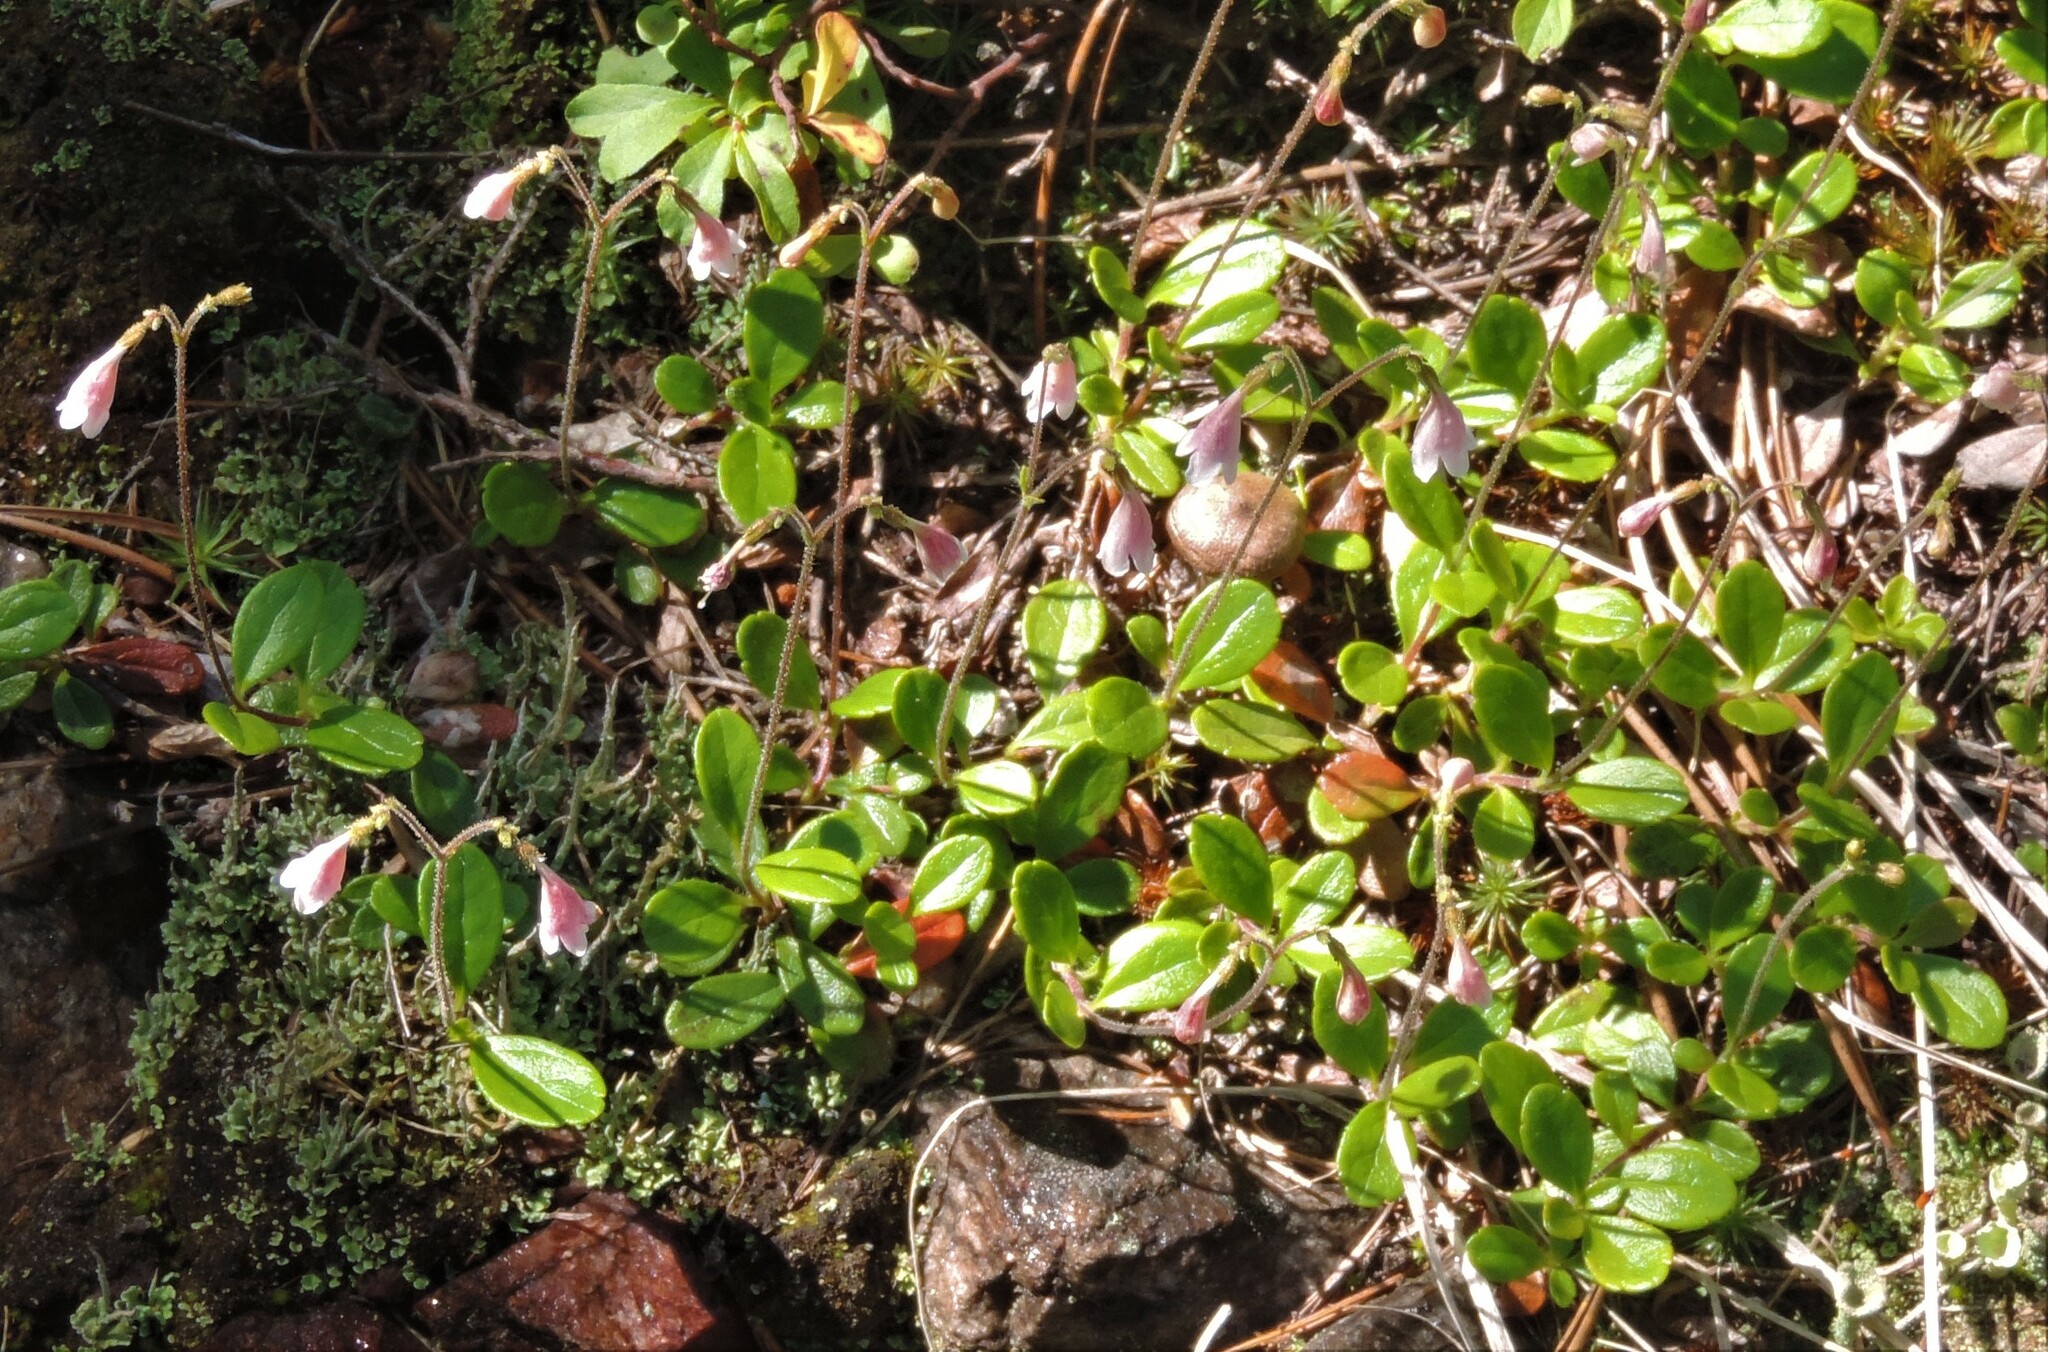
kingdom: Plantae
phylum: Tracheophyta
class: Magnoliopsida
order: Dipsacales
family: Caprifoliaceae
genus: Linnaea
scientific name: Linnaea borealis
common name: Twinflower
